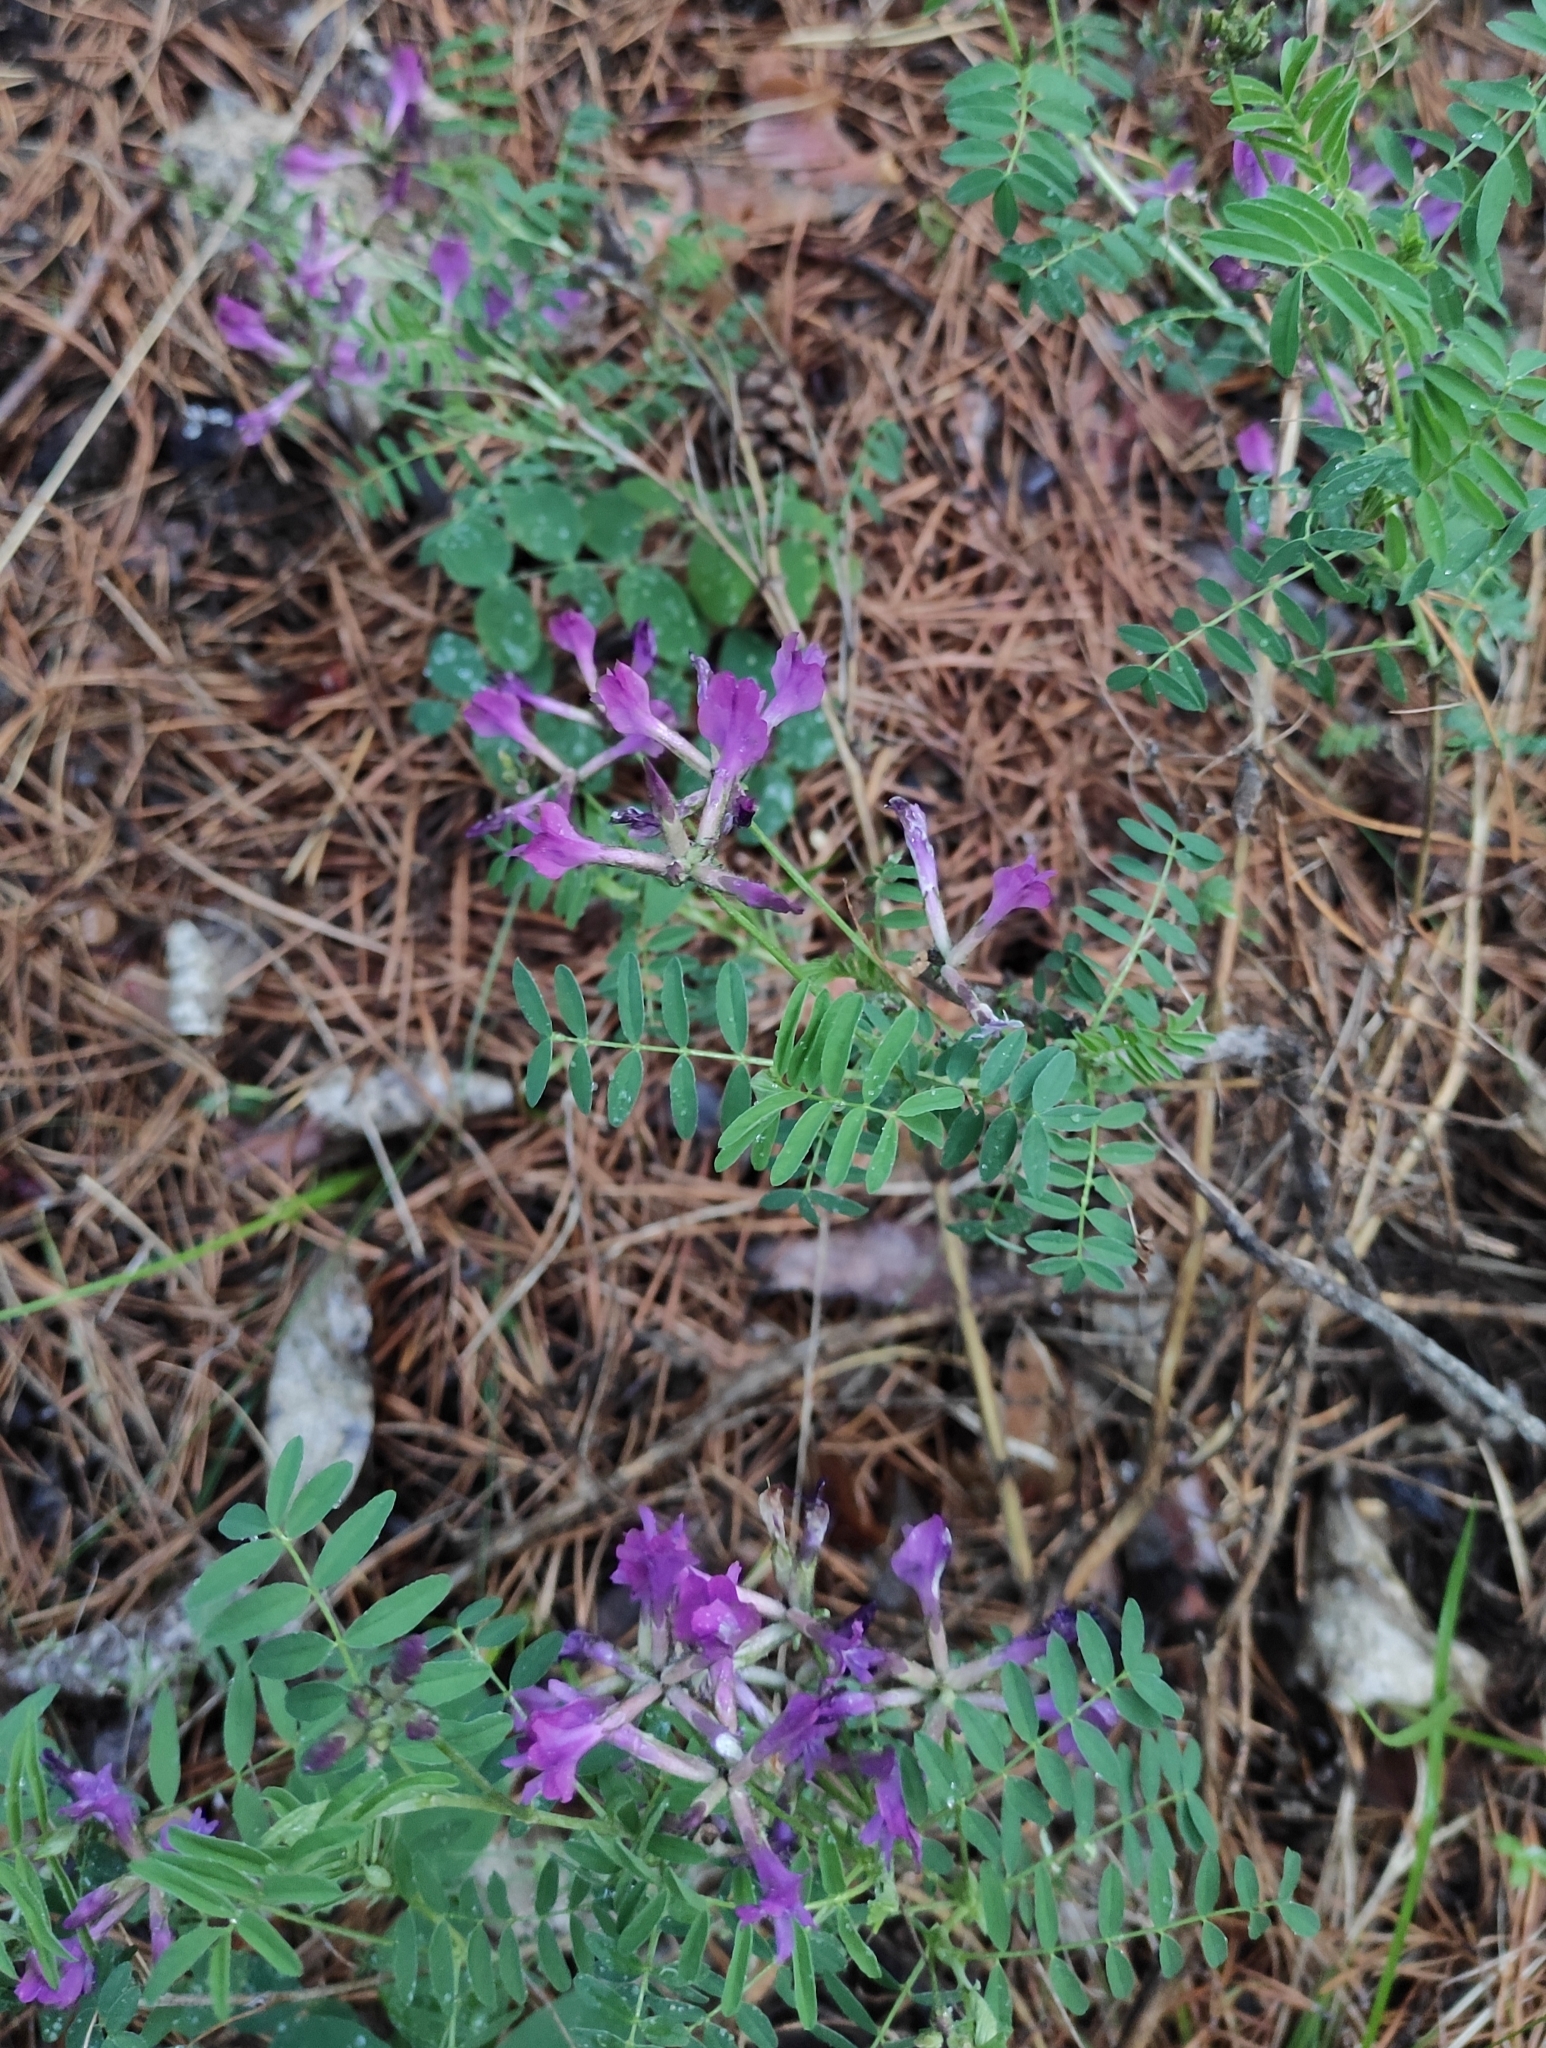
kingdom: Plantae
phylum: Tracheophyta
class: Magnoliopsida
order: Fabales
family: Fabaceae
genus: Astragalus
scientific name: Astragalus syriacus
